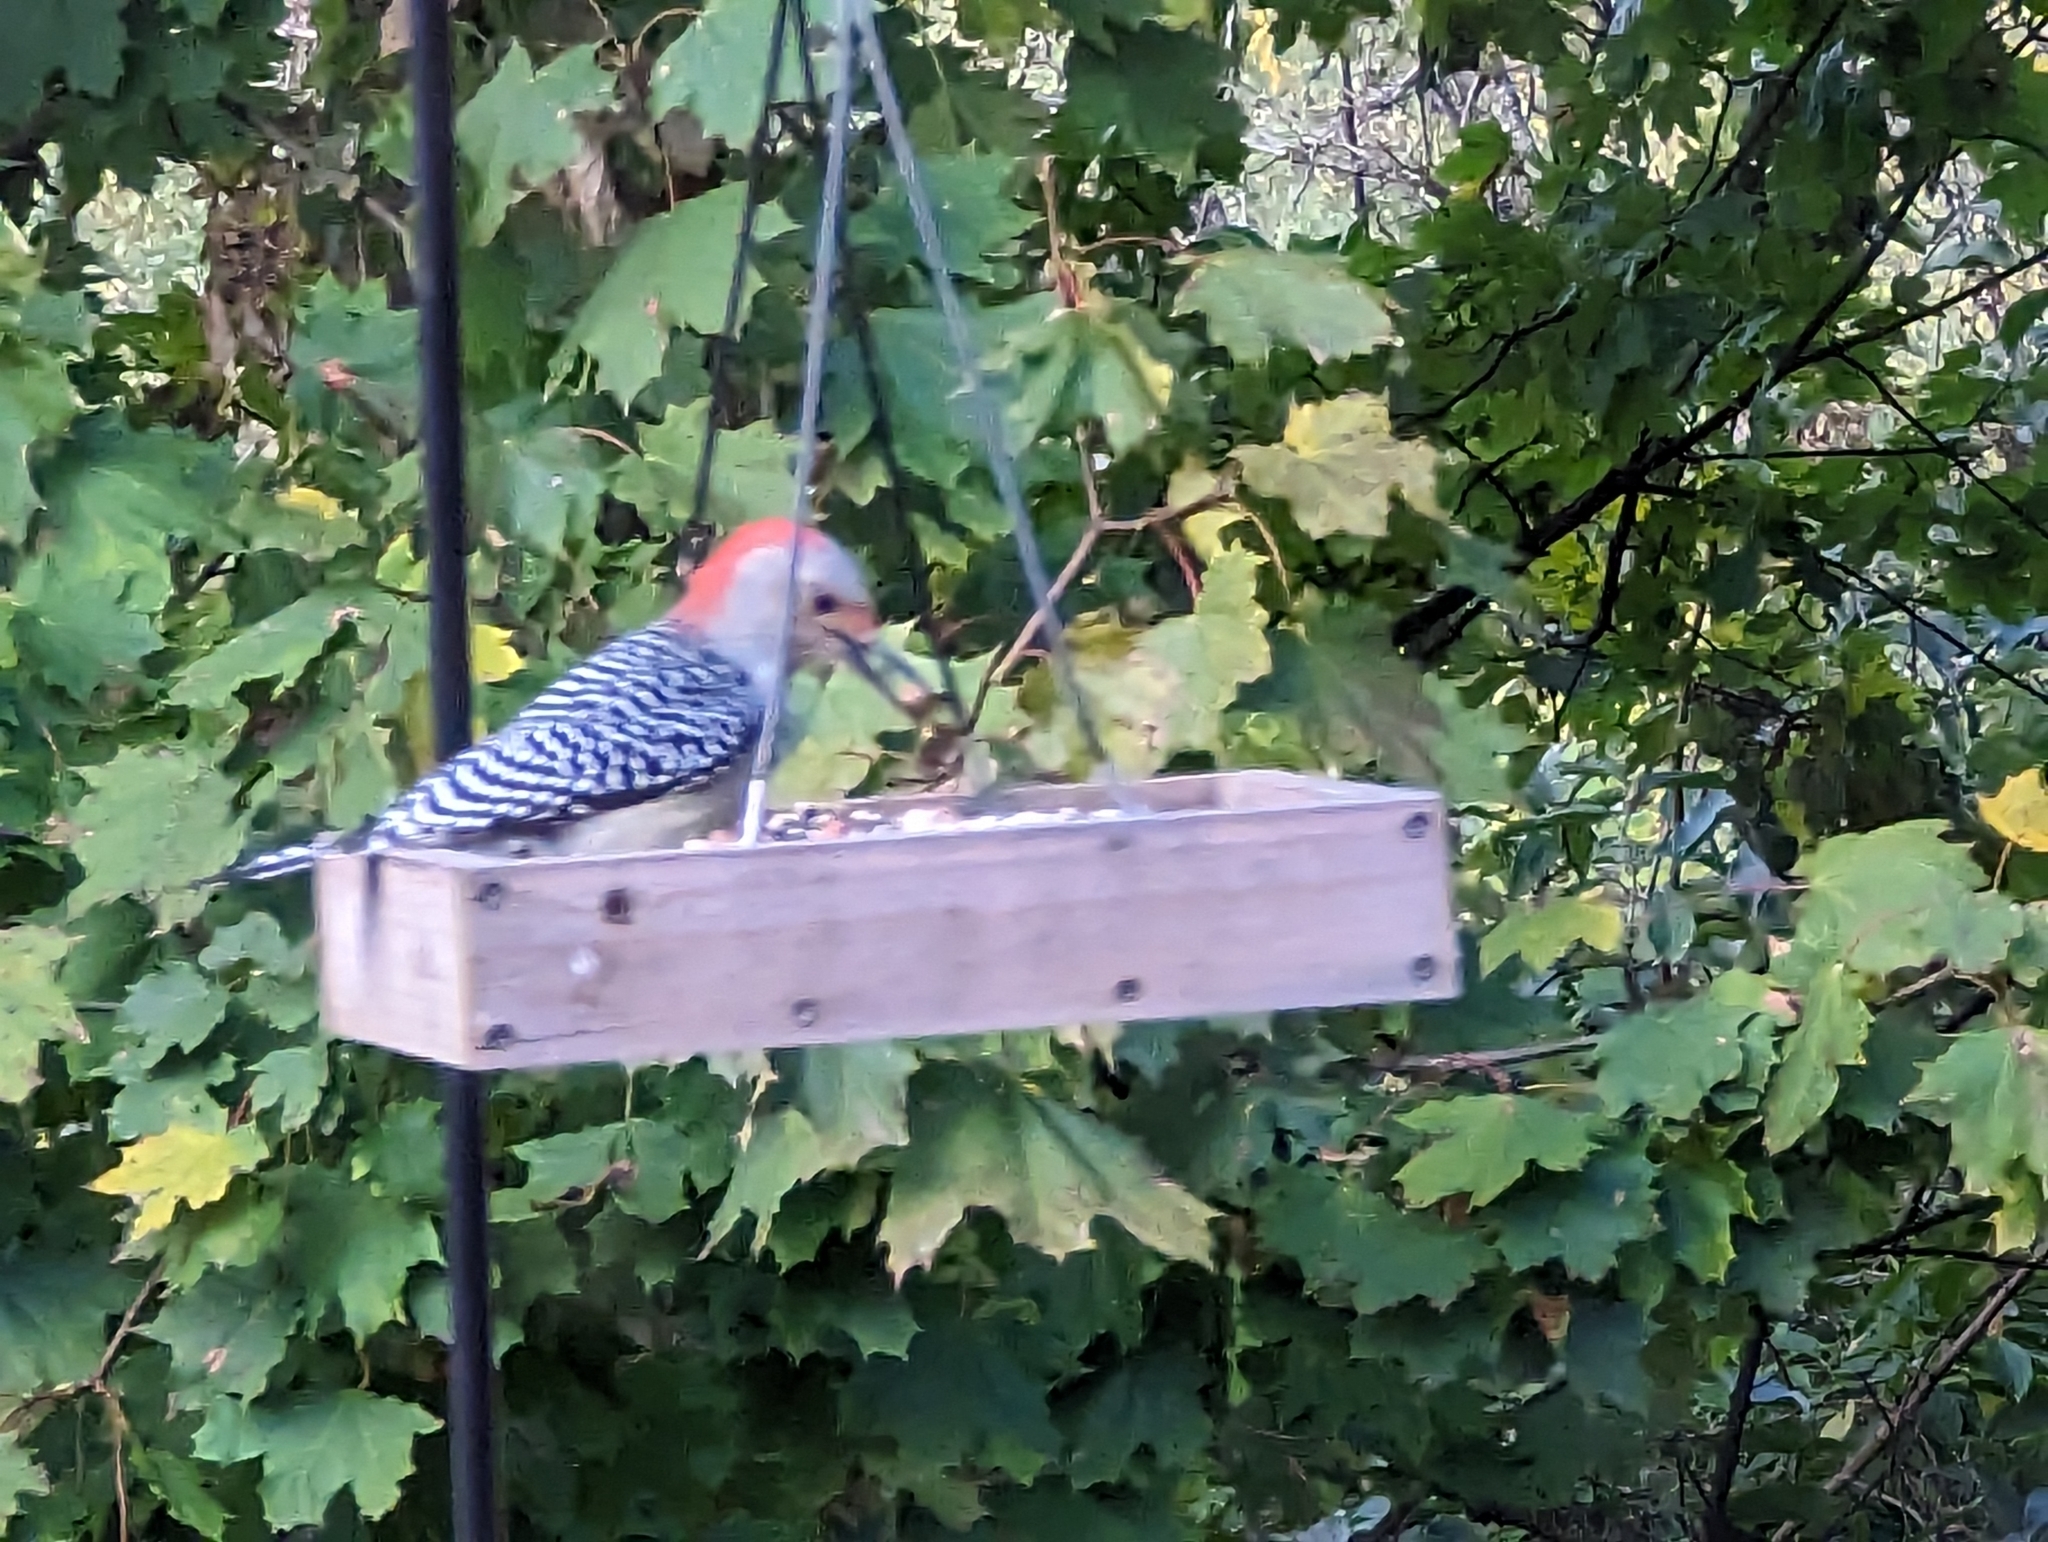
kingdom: Animalia
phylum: Chordata
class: Aves
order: Piciformes
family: Picidae
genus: Melanerpes
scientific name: Melanerpes carolinus
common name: Red-bellied woodpecker
